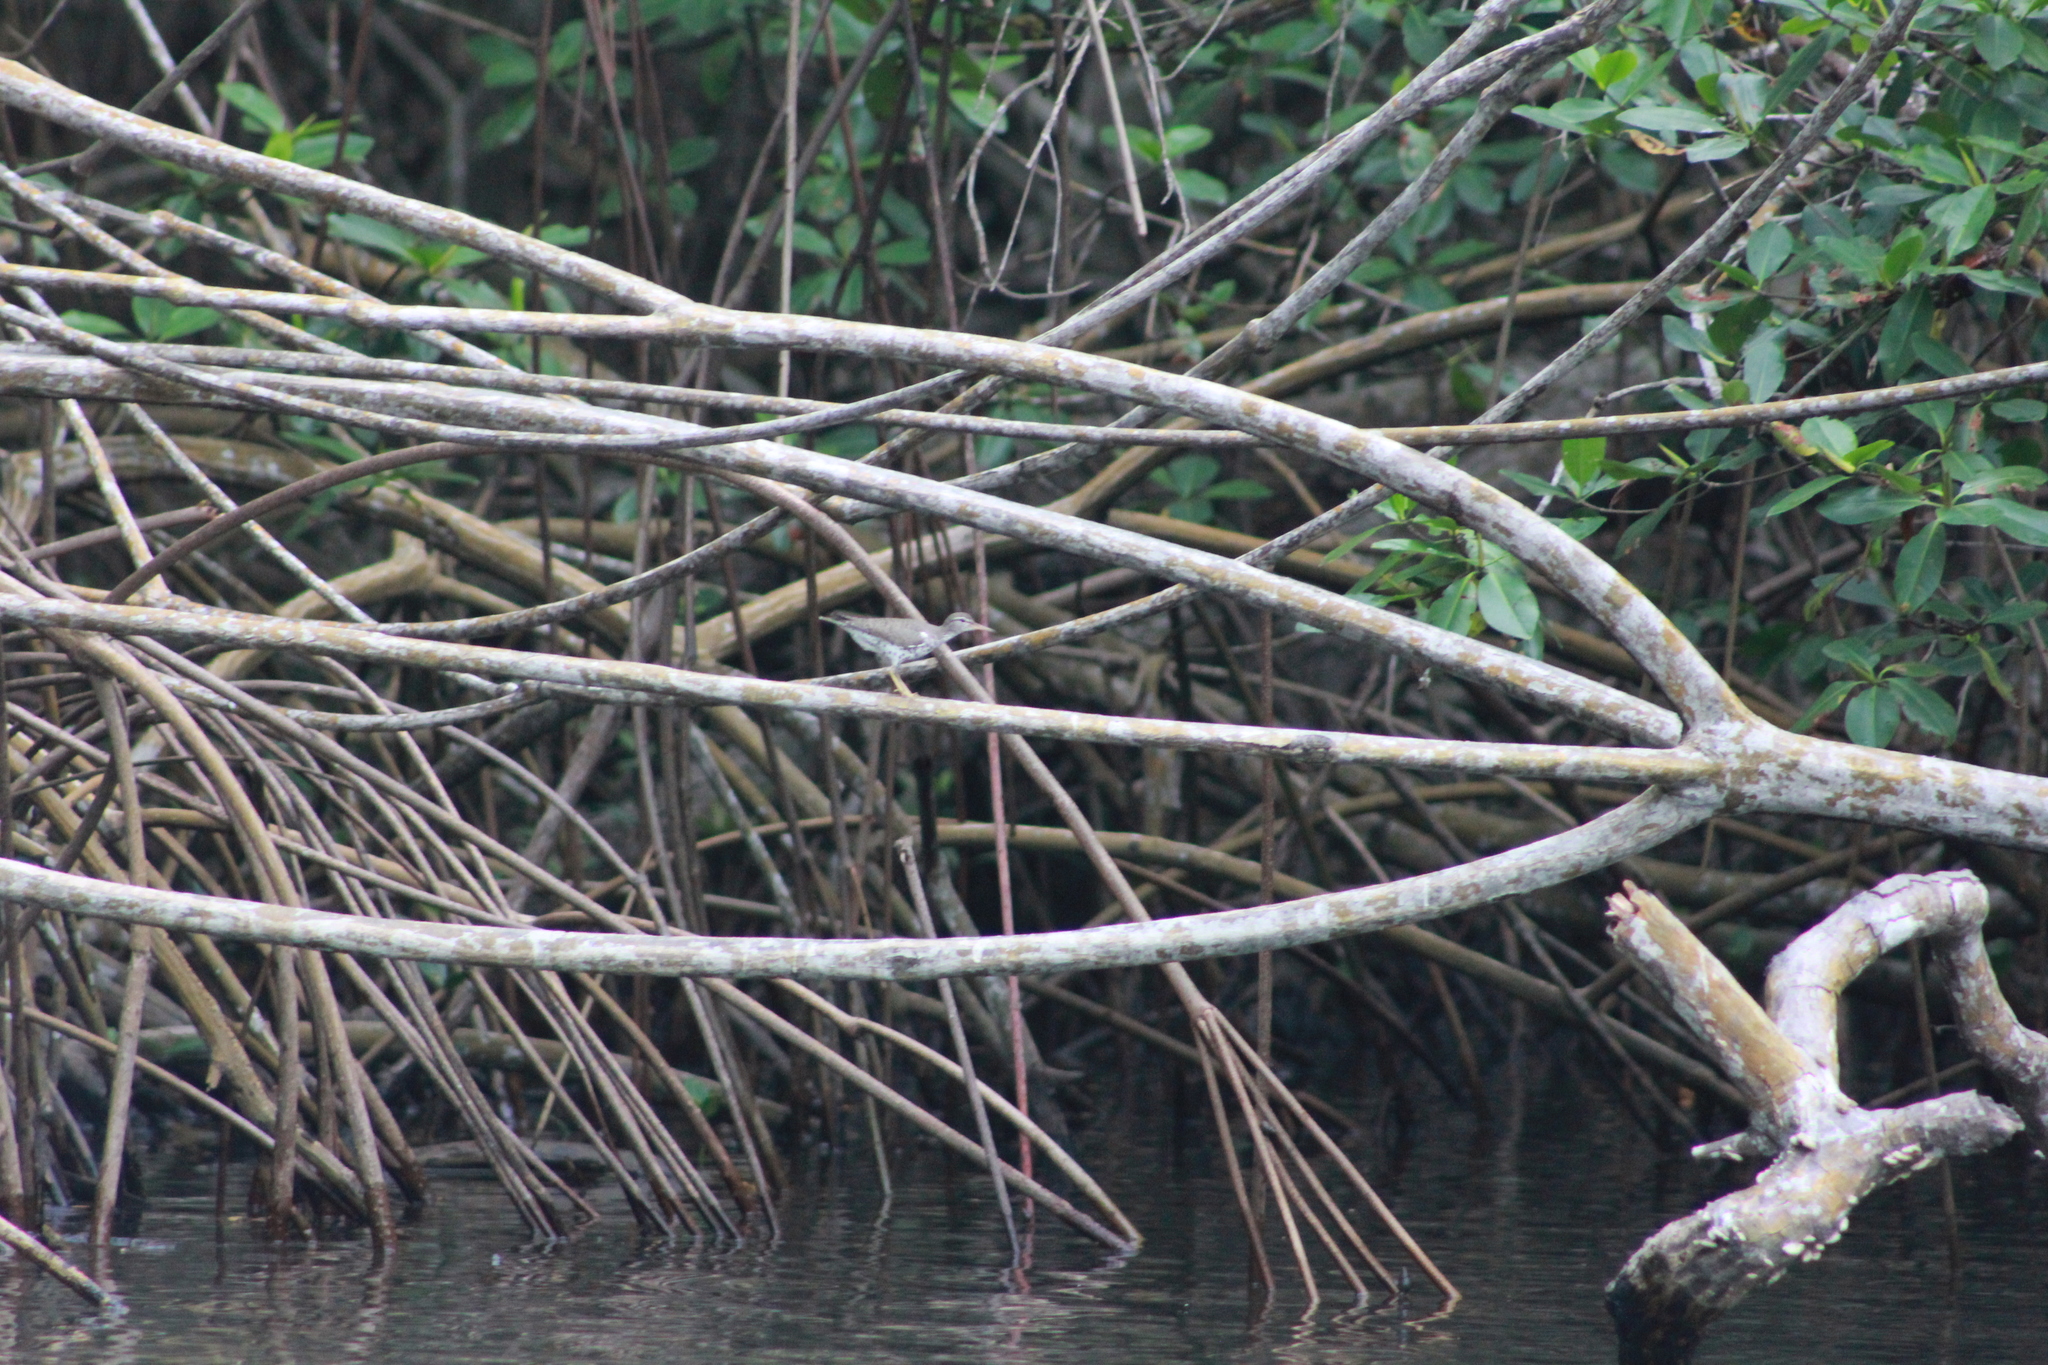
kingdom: Animalia
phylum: Chordata
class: Aves
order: Charadriiformes
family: Scolopacidae
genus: Actitis
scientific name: Actitis macularius
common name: Spotted sandpiper
